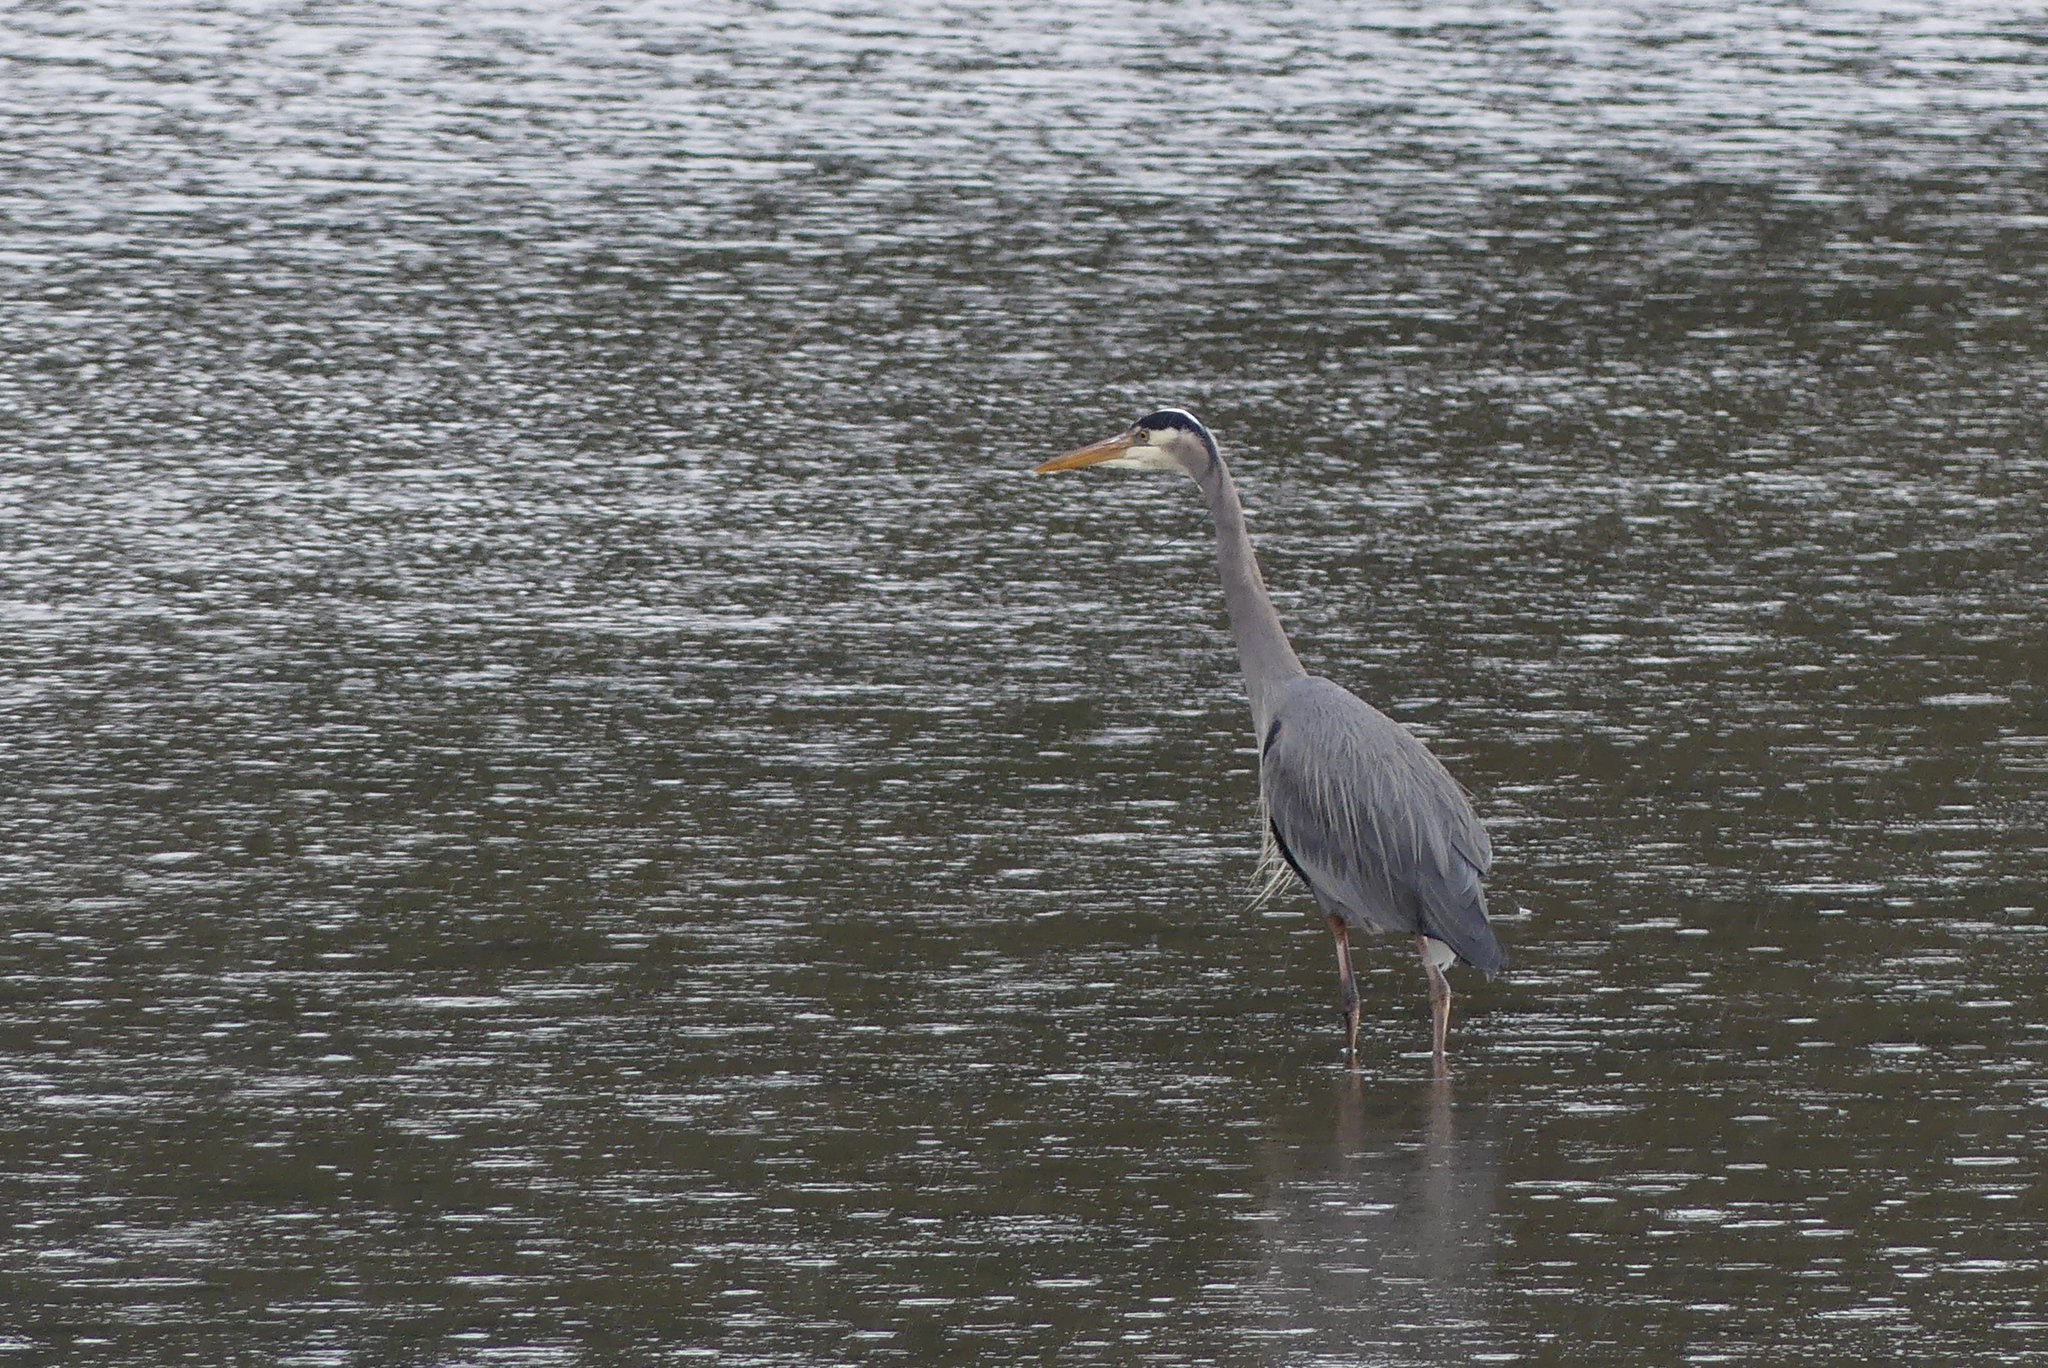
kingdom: Animalia
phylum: Chordata
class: Aves
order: Pelecaniformes
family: Ardeidae
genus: Ardea
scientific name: Ardea herodias
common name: Great blue heron
